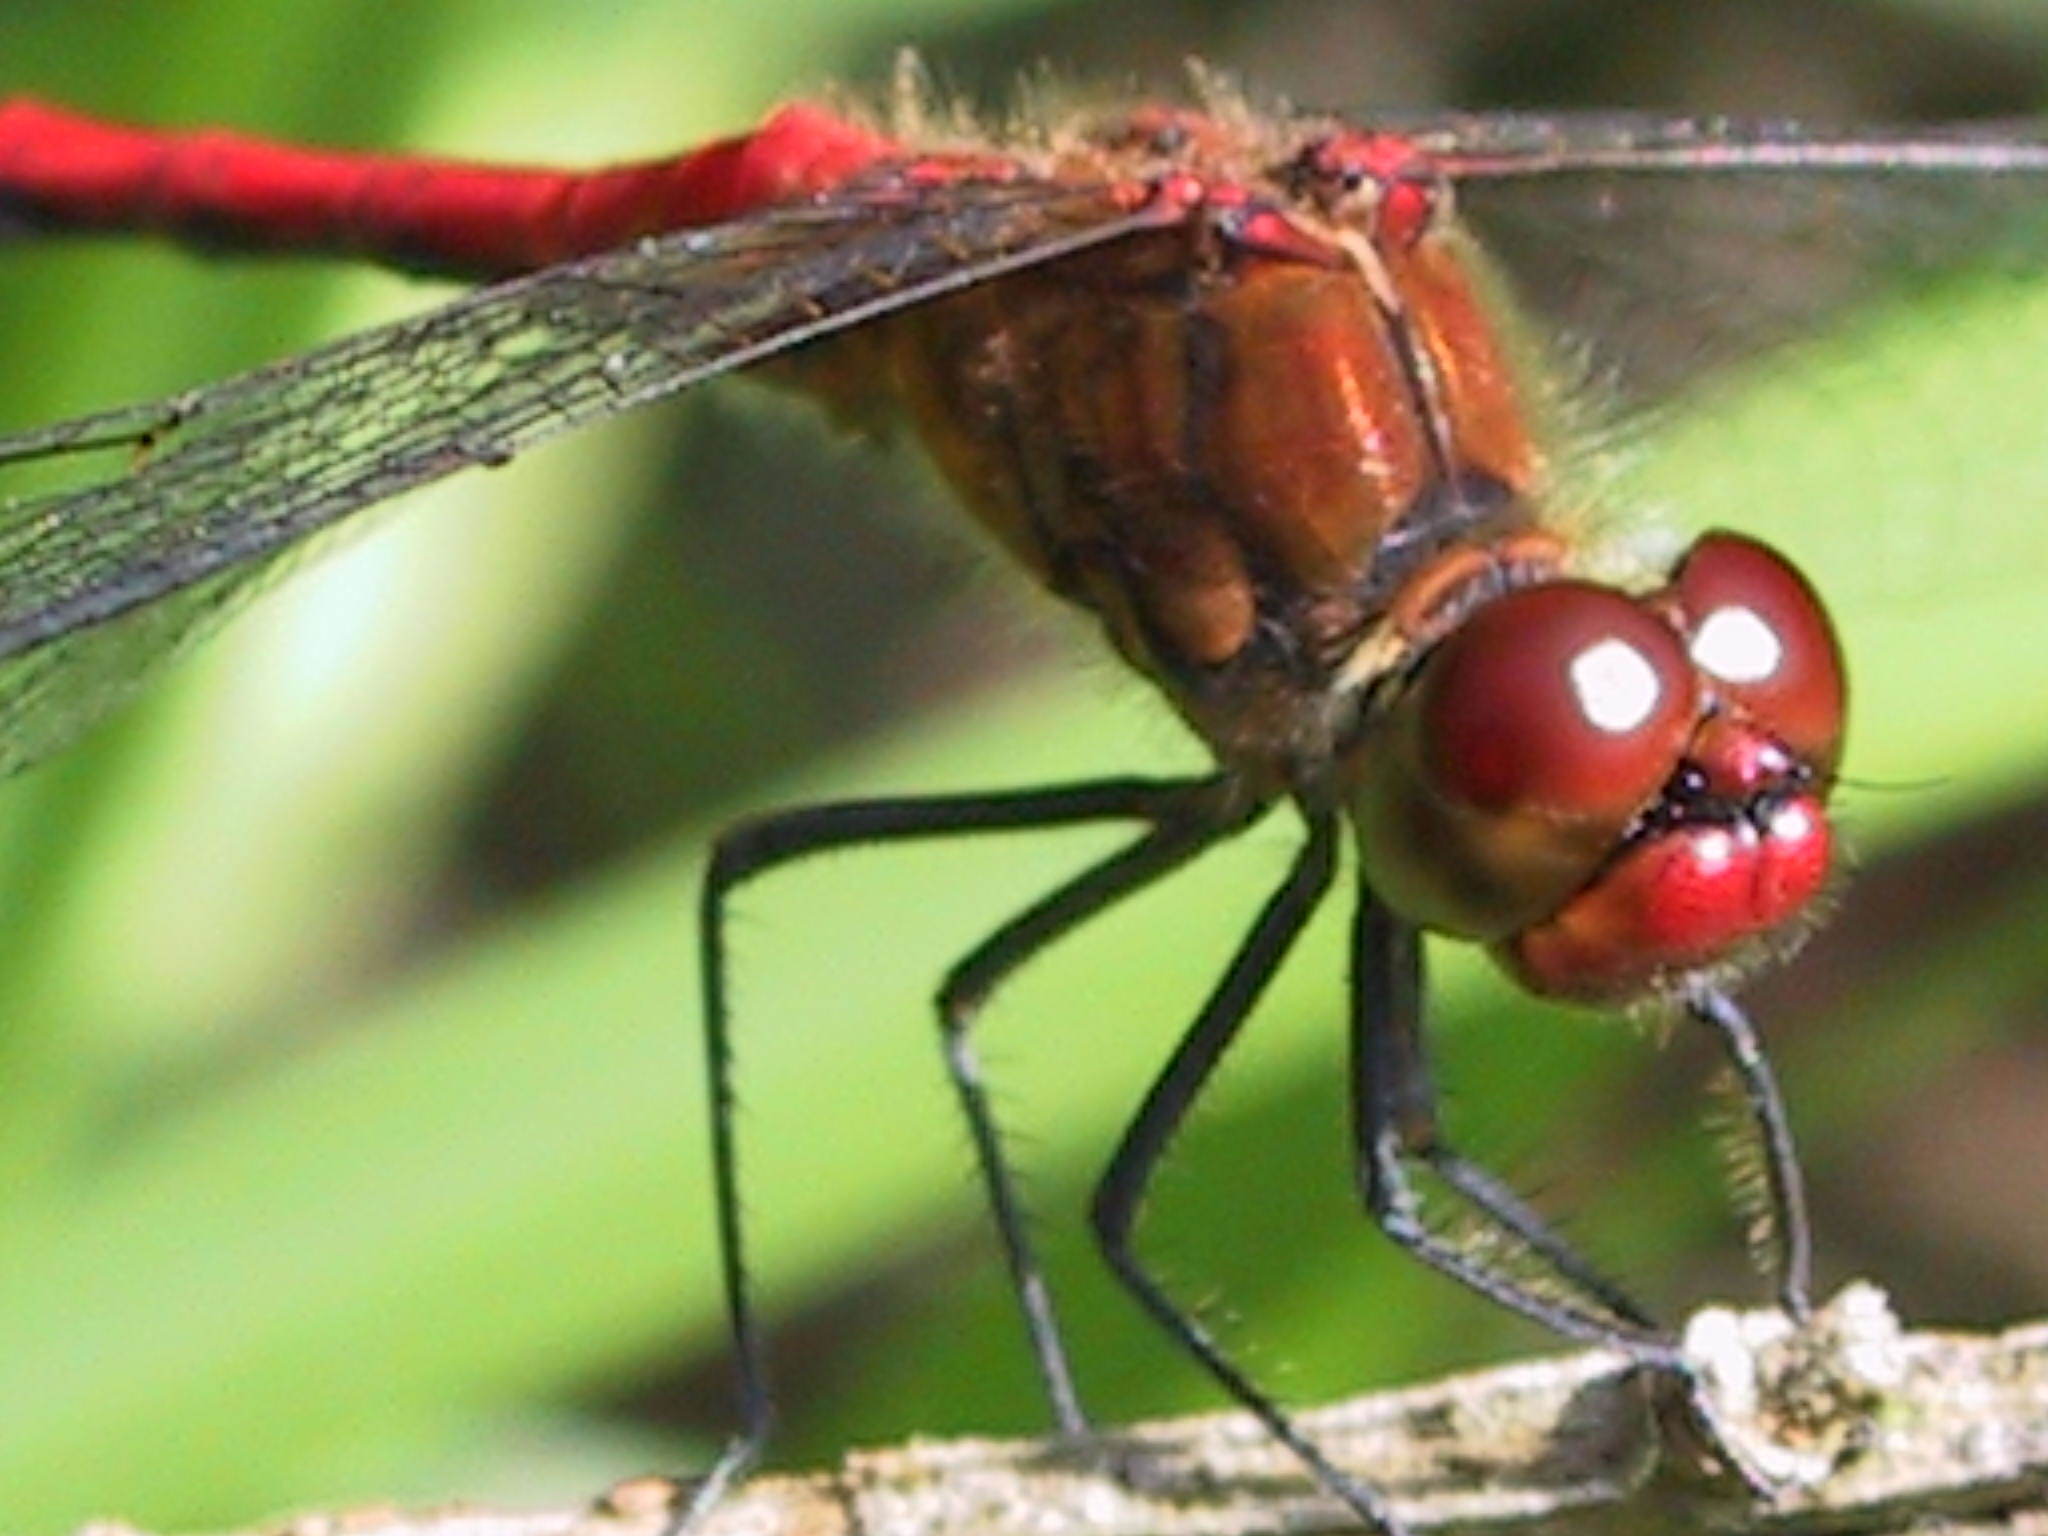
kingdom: Animalia
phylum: Arthropoda
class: Insecta
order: Odonata
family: Libellulidae
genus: Sympetrum
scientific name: Sympetrum sanguineum
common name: Ruddy darter
